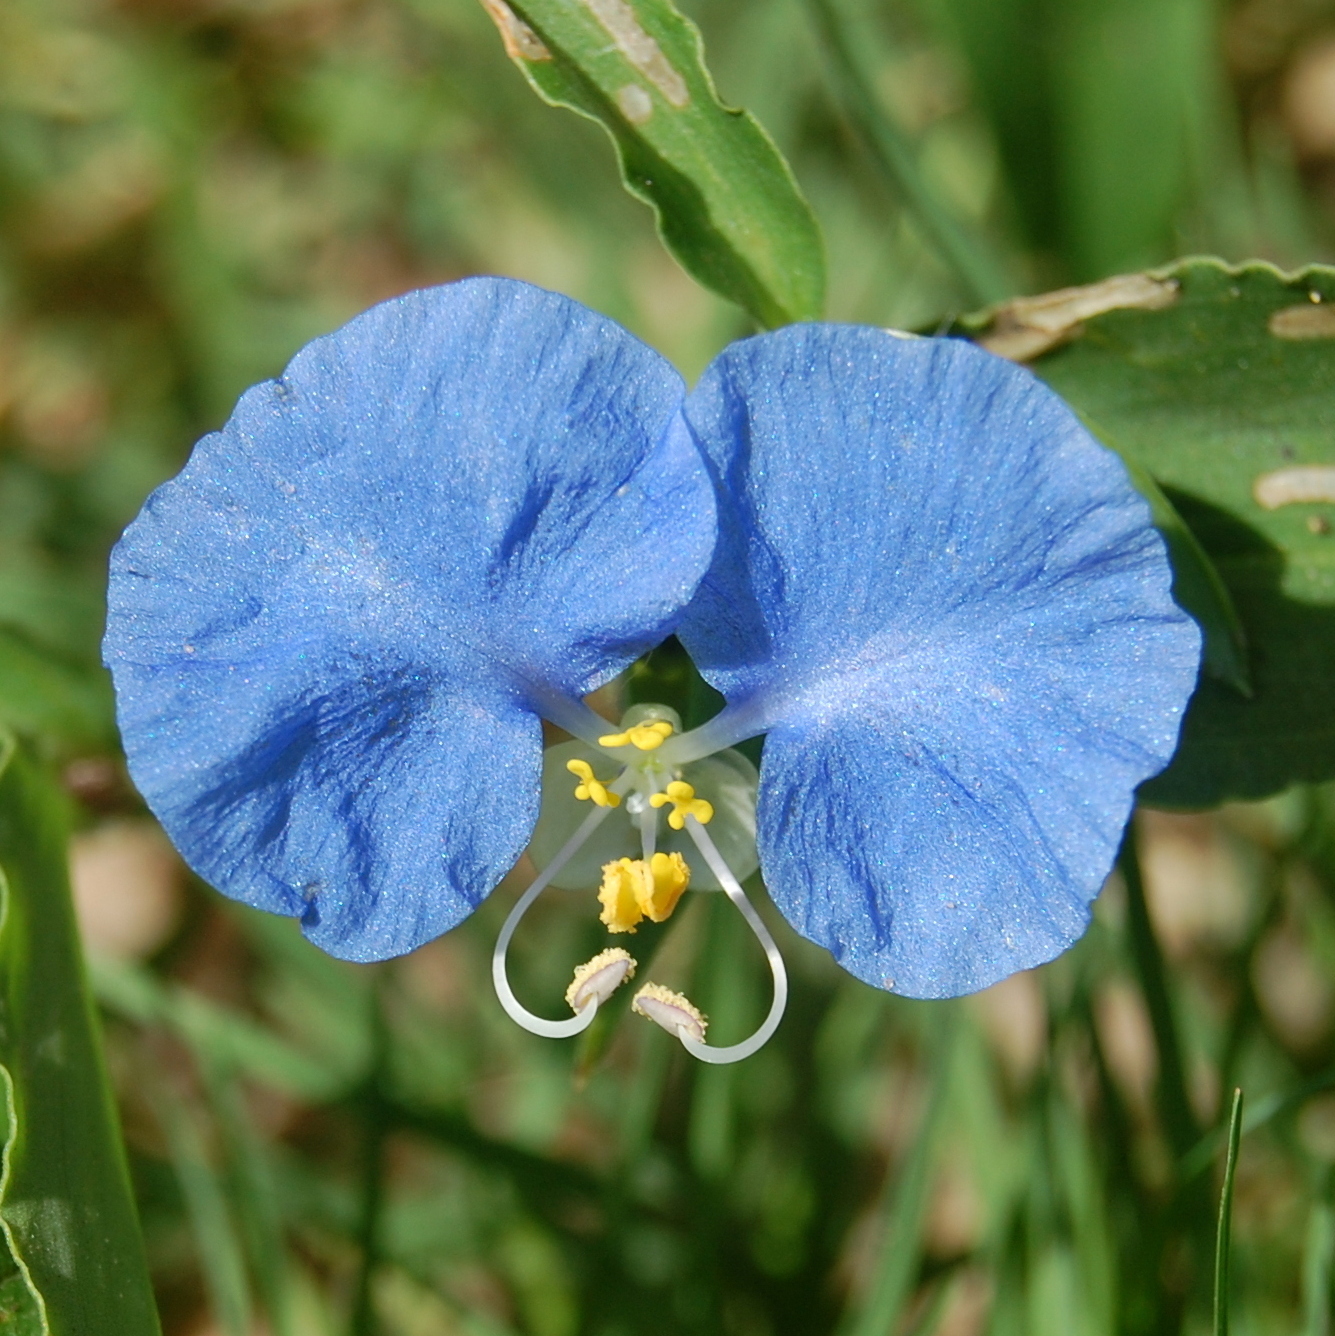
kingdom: Plantae
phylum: Tracheophyta
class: Liliopsida
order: Commelinales
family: Commelinaceae
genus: Commelina
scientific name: Commelina erecta
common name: Blousel blommetjie
